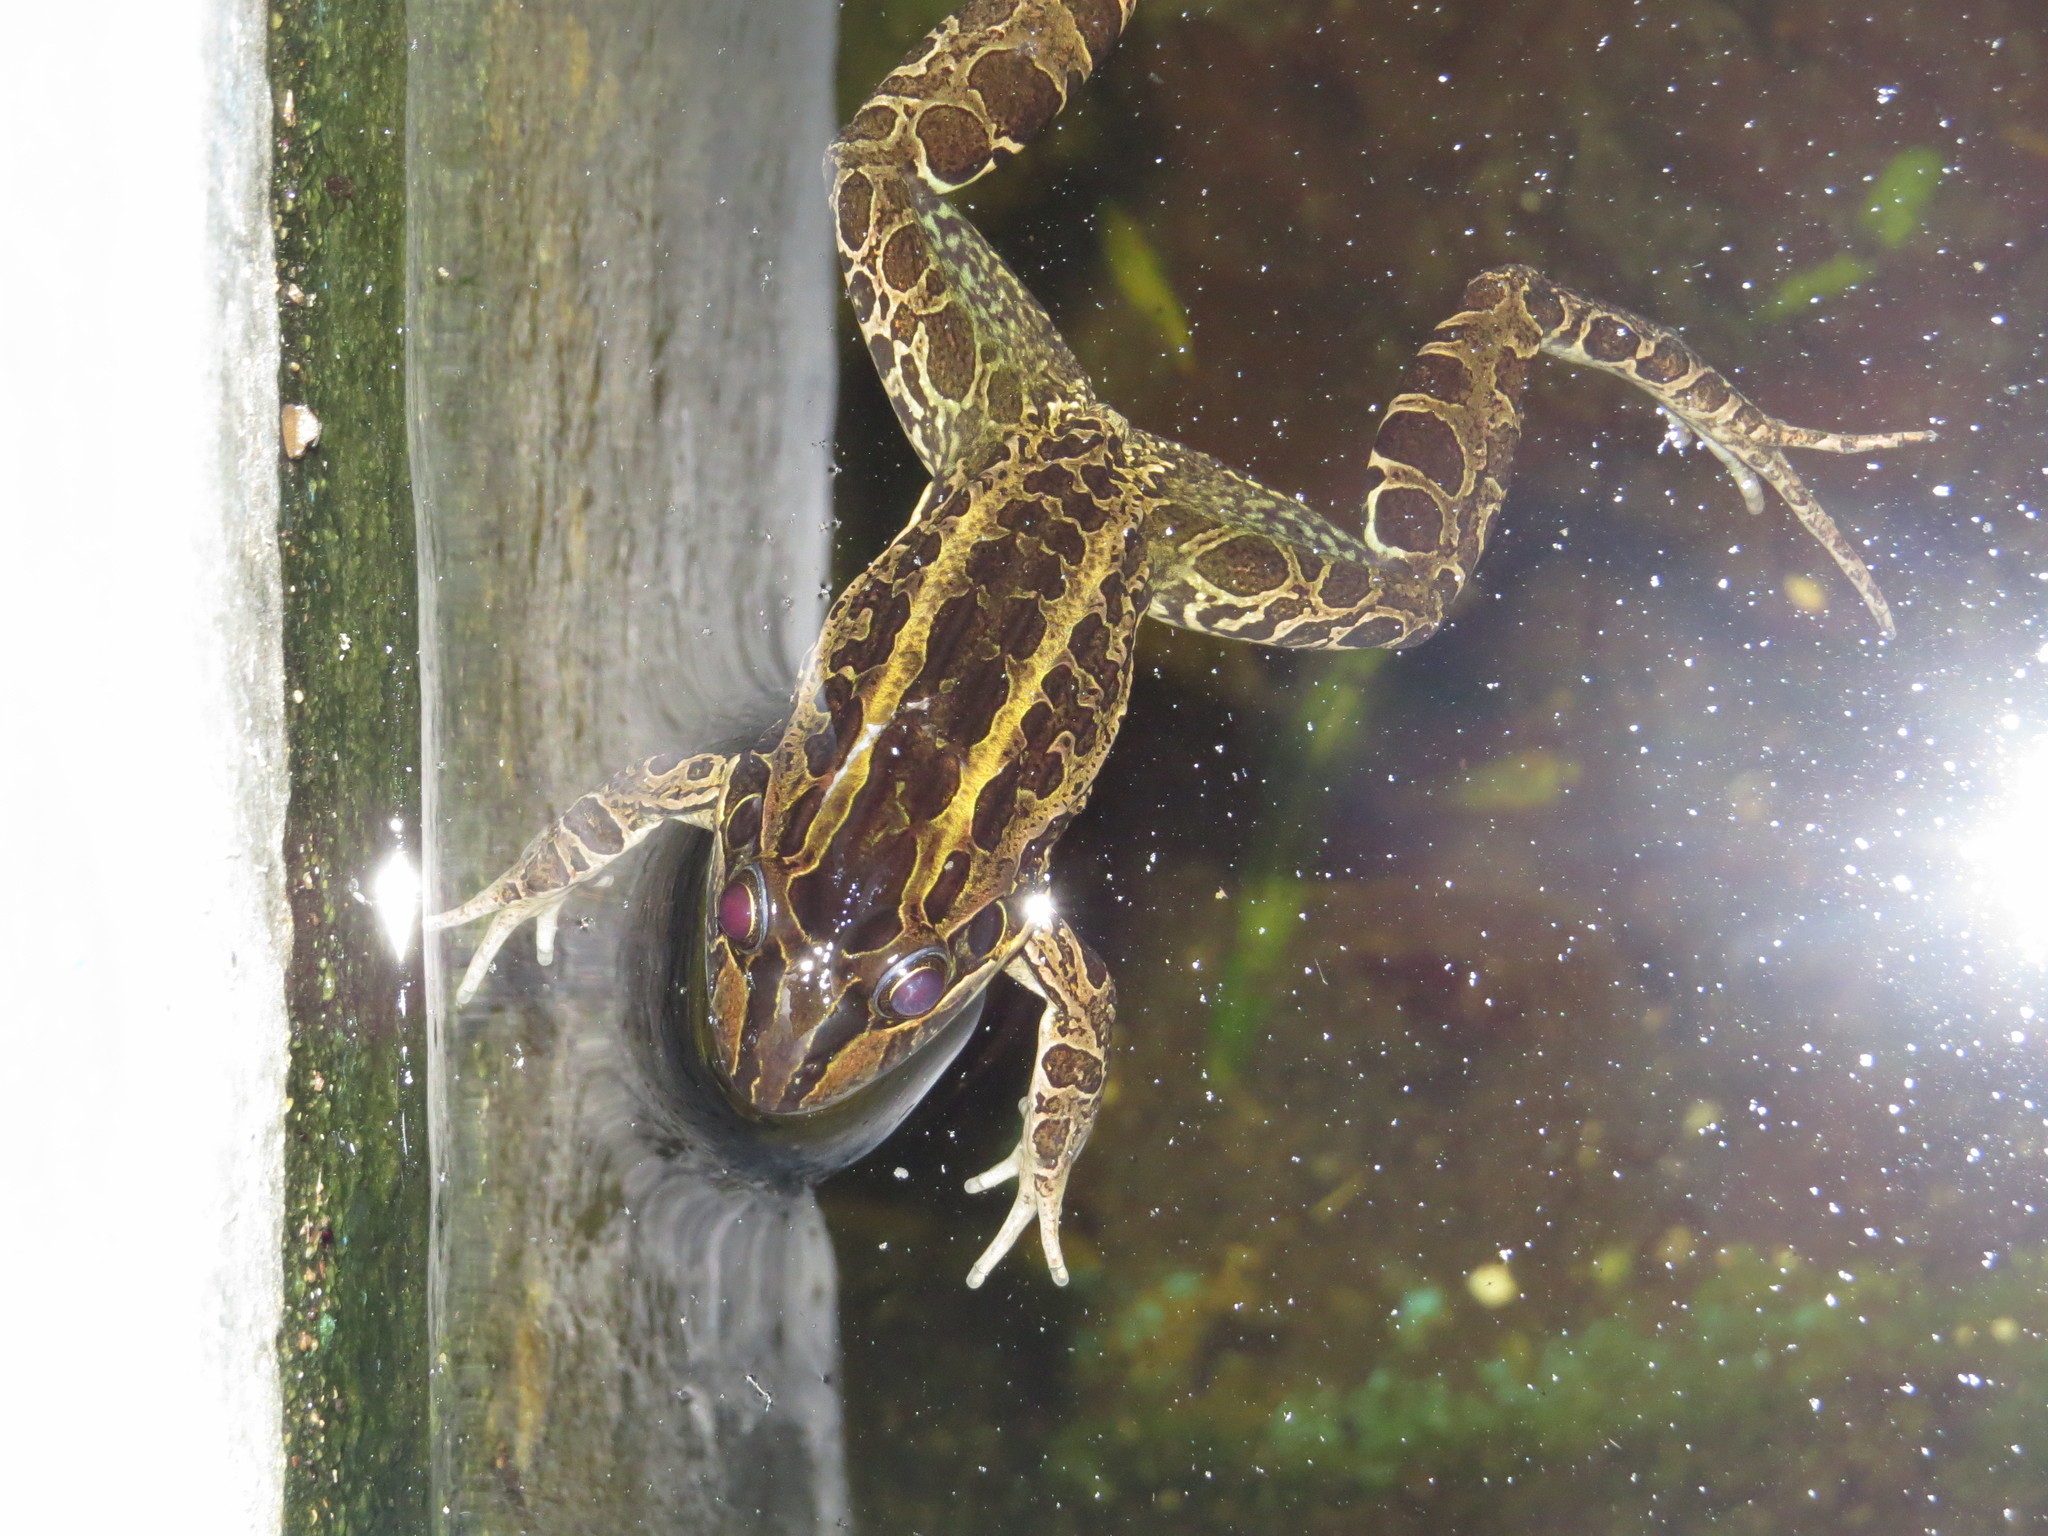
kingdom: Animalia
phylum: Chordata
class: Amphibia
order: Anura
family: Leptodactylidae
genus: Leptodactylus
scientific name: Leptodactylus luctator
